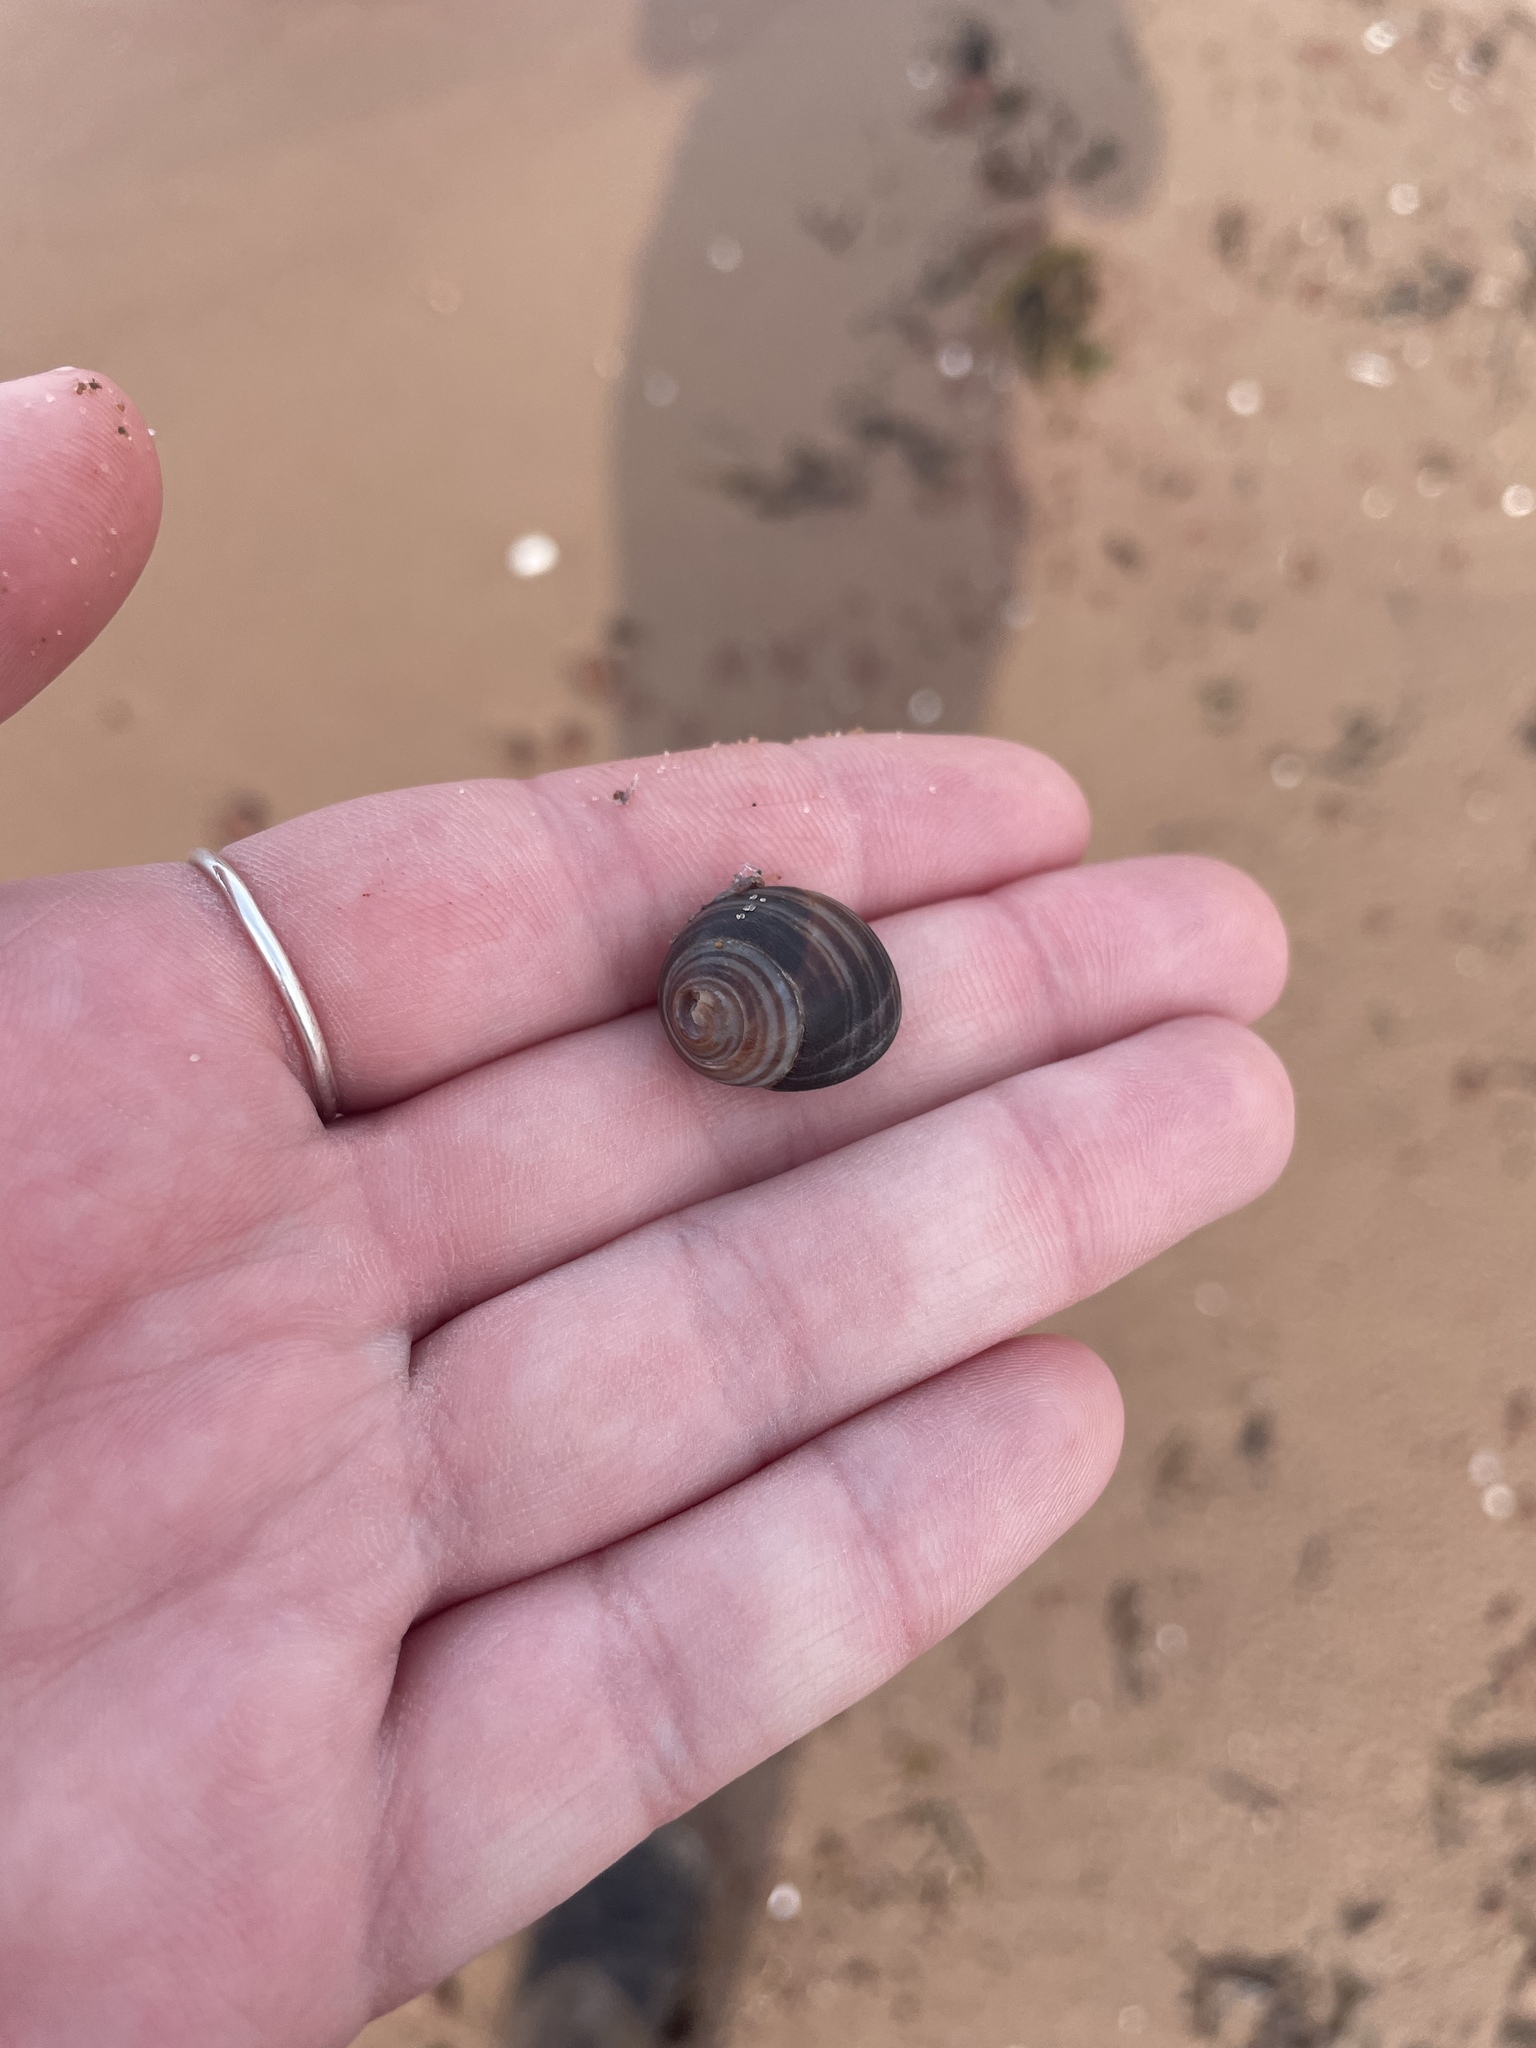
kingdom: Animalia
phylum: Mollusca
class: Gastropoda
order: Littorinimorpha
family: Littorinidae
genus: Littorina
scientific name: Littorina littorea
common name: Common periwinkle
